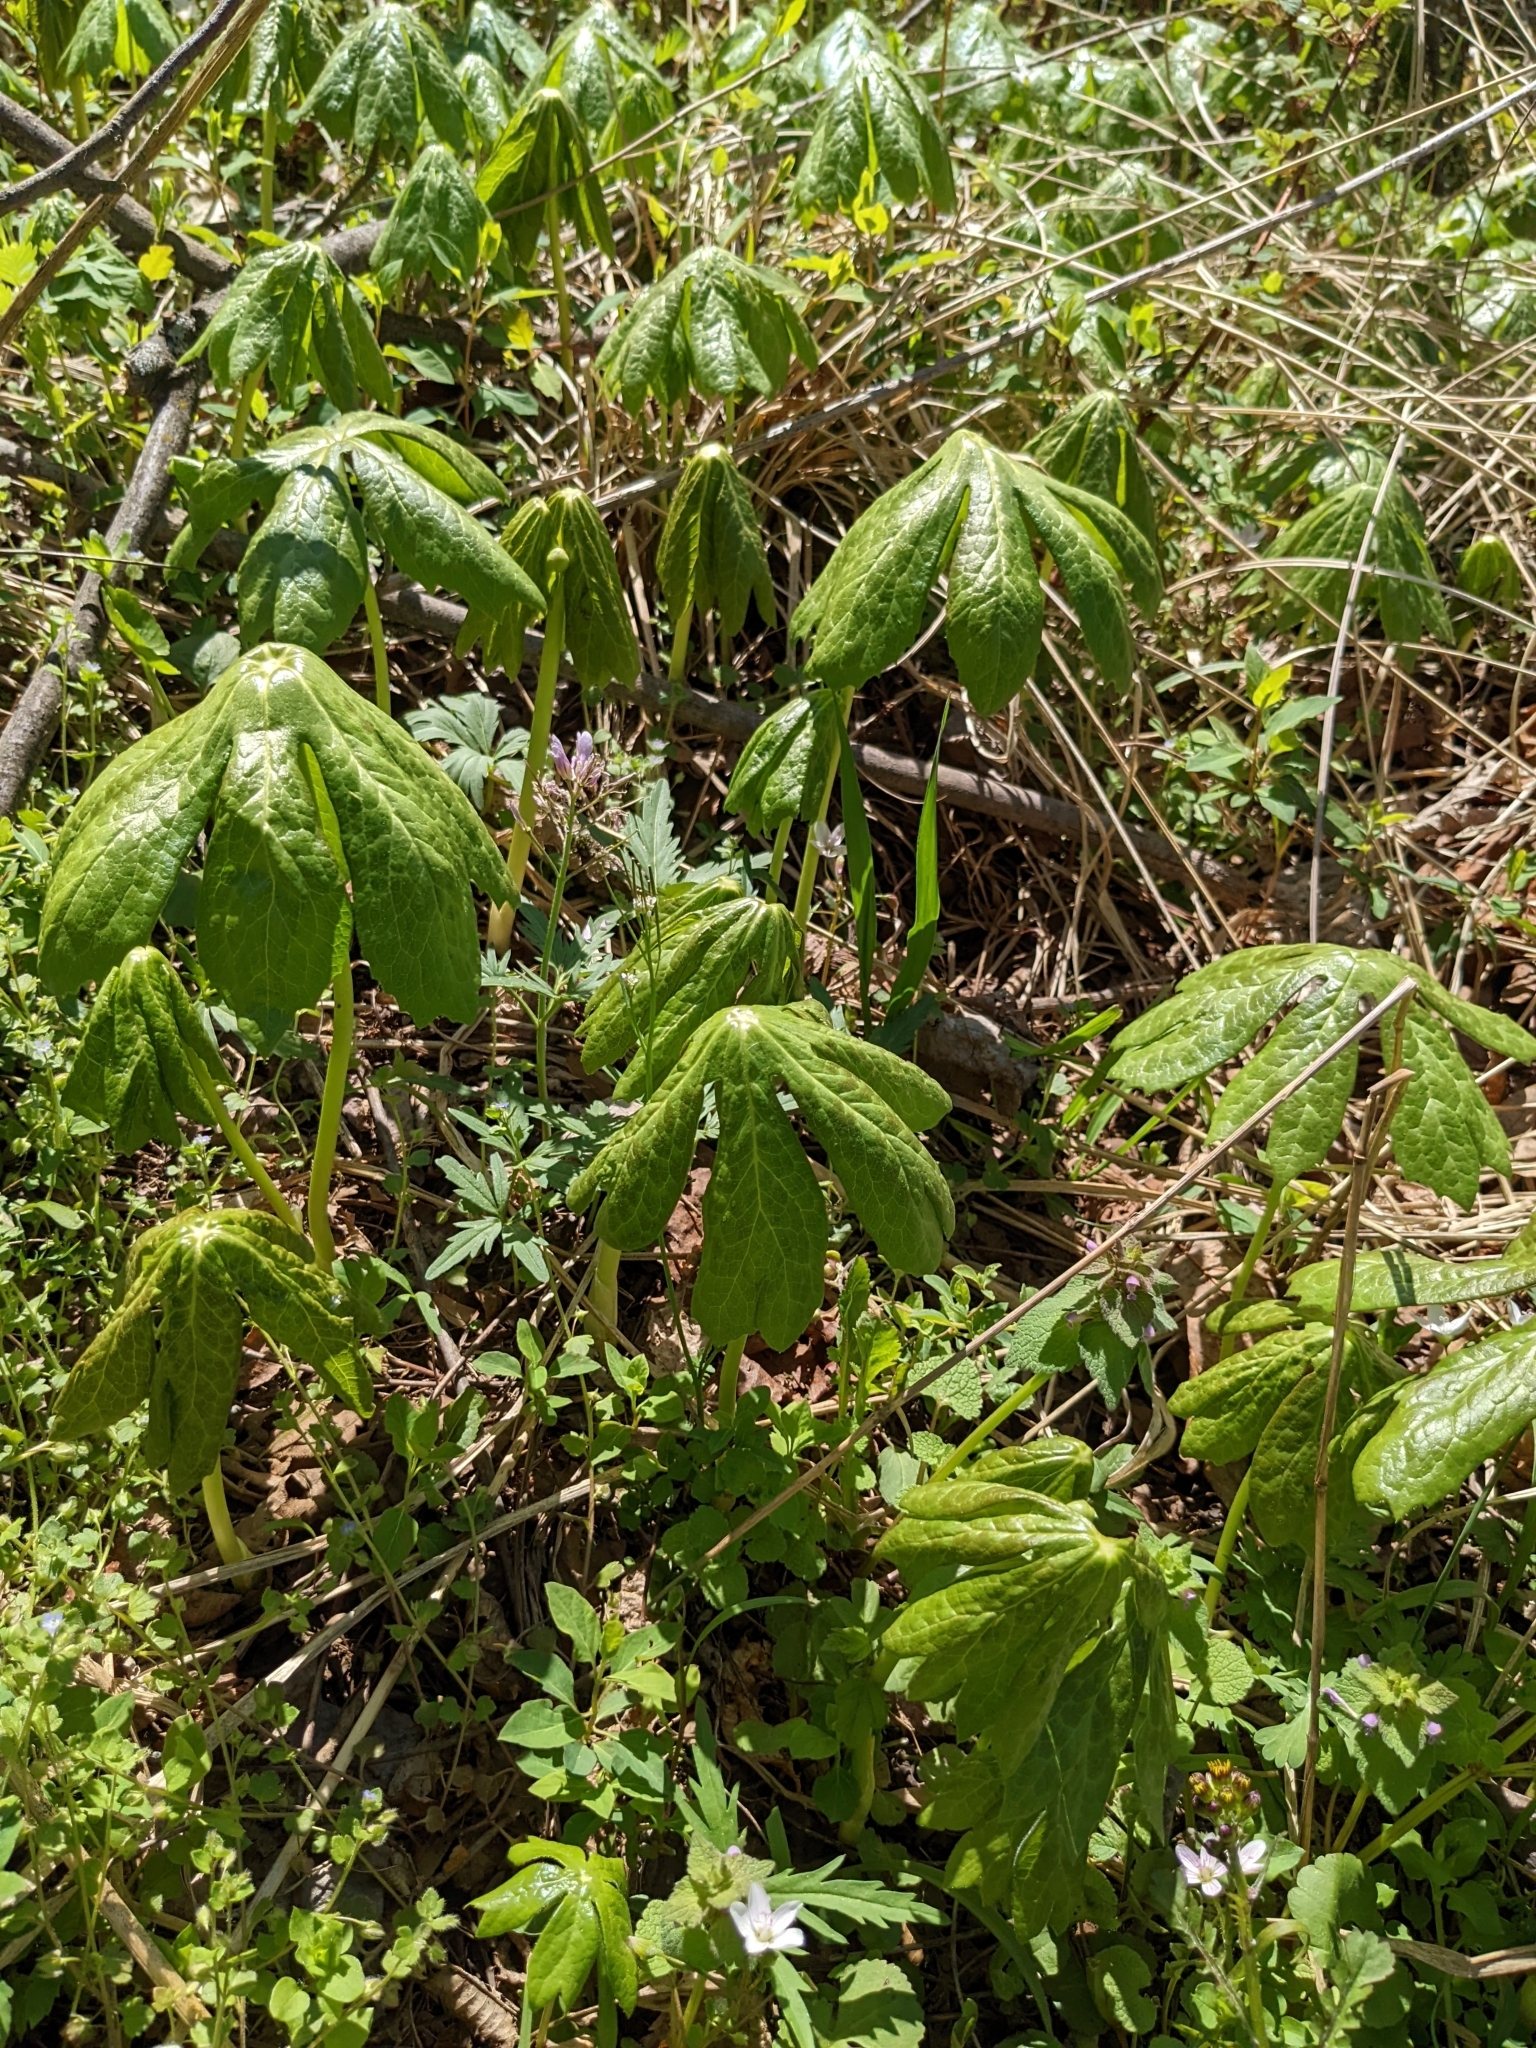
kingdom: Plantae
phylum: Tracheophyta
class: Magnoliopsida
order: Ranunculales
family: Berberidaceae
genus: Podophyllum
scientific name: Podophyllum peltatum
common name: Wild mandrake
